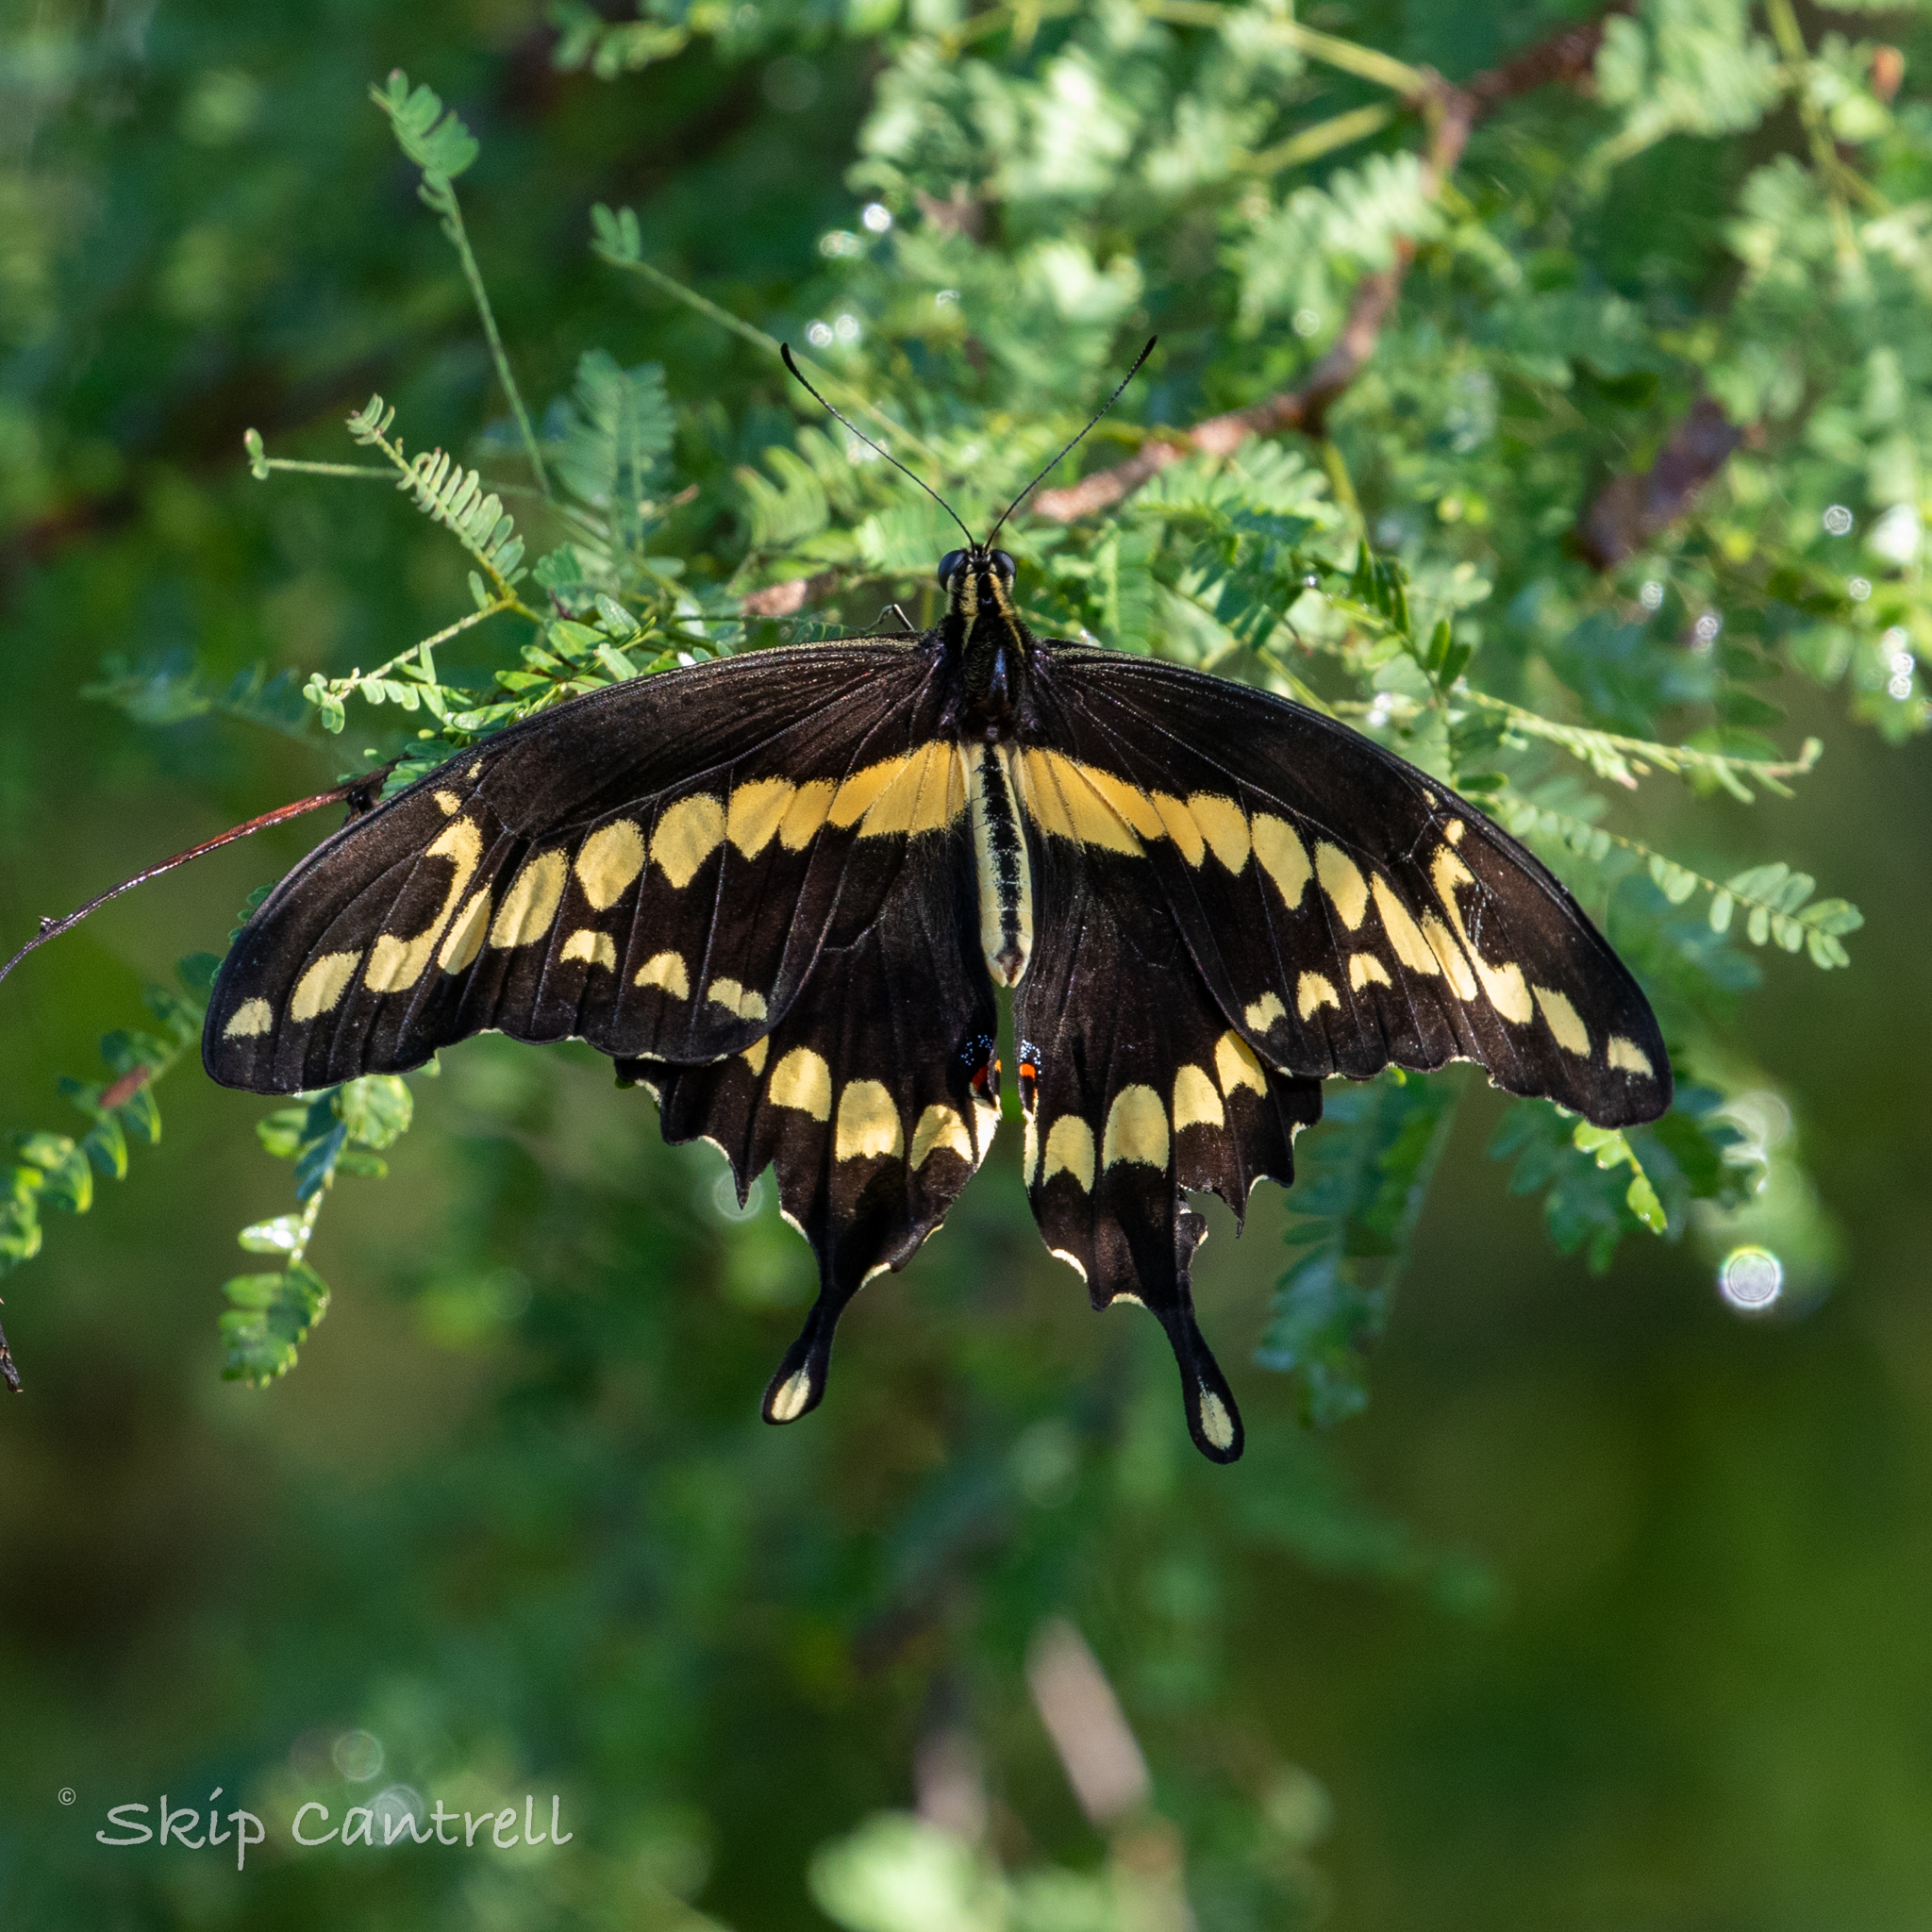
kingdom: Animalia
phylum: Arthropoda
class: Insecta
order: Lepidoptera
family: Papilionidae
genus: Papilio
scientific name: Papilio rumiko
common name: Western giant swallowtail
